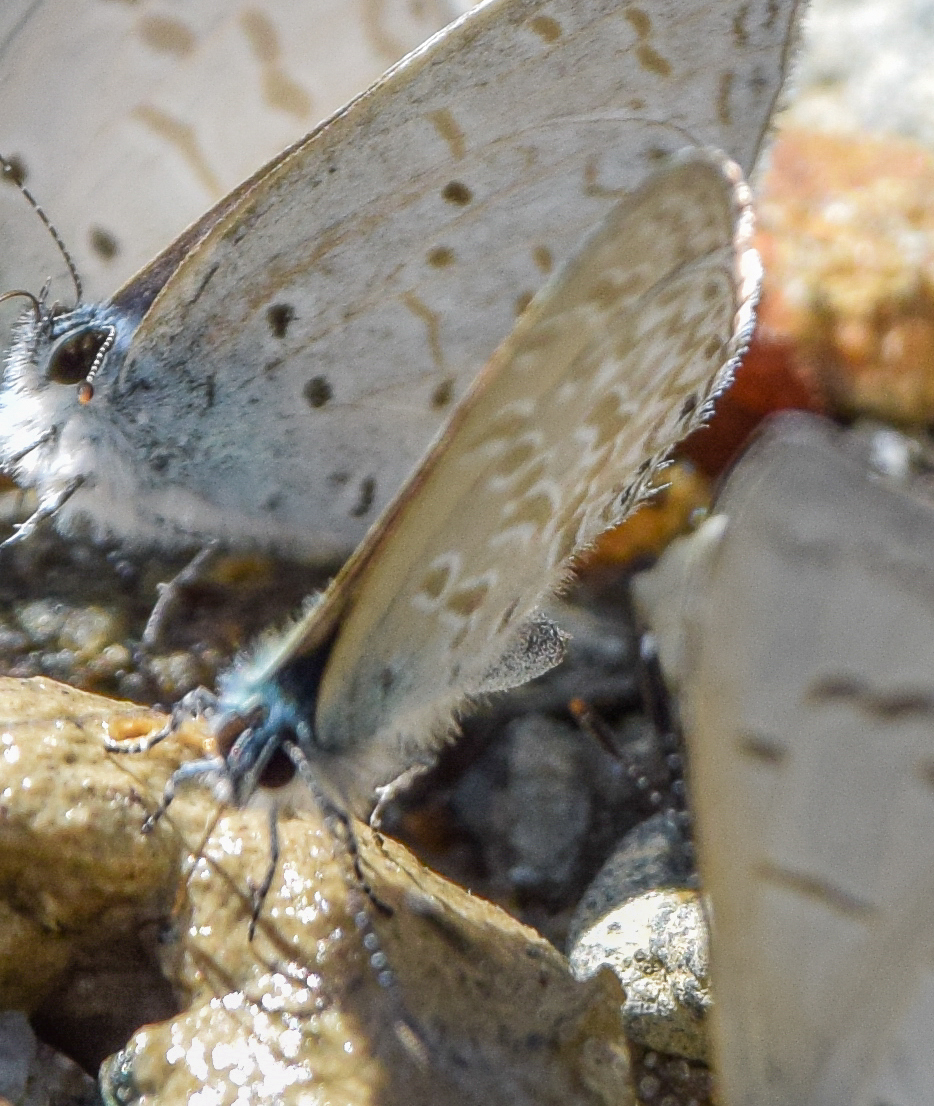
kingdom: Animalia
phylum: Arthropoda
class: Insecta
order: Lepidoptera
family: Lycaenidae
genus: Monodontides
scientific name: Monodontides
